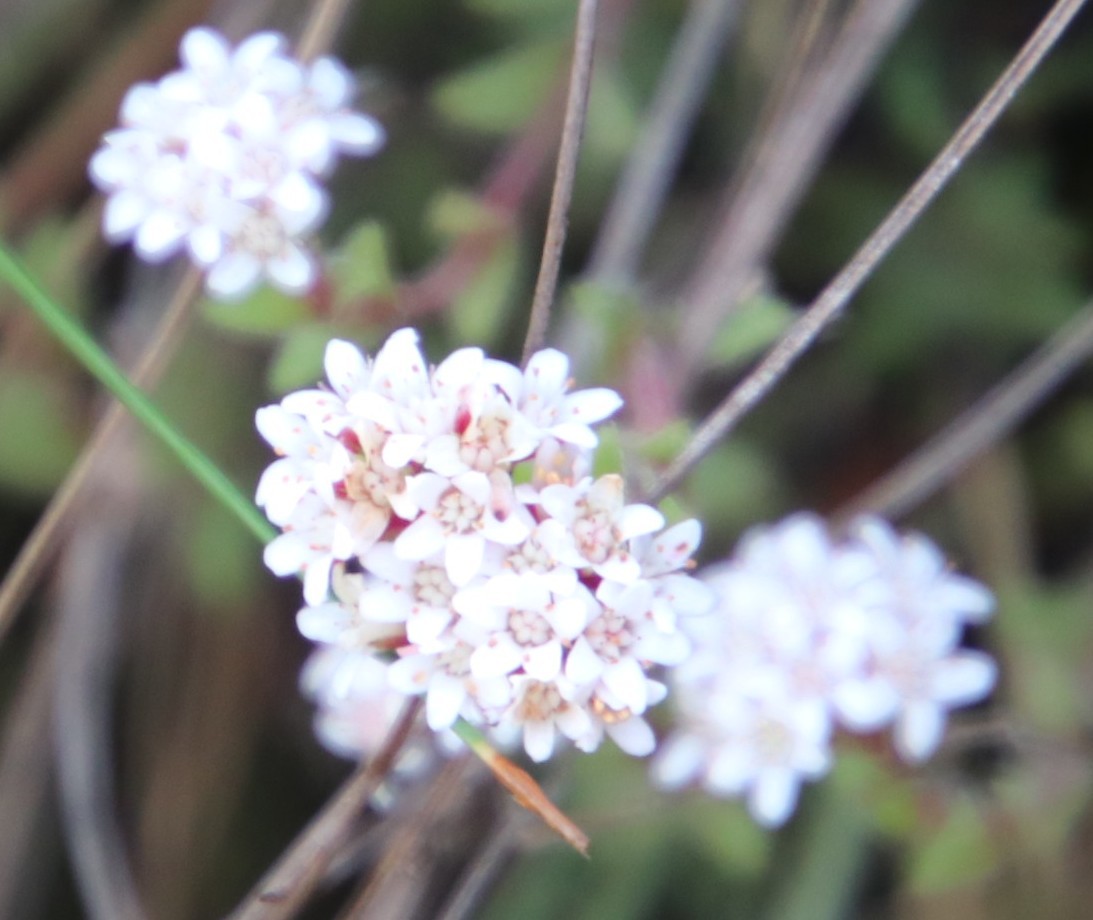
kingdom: Plantae
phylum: Tracheophyta
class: Magnoliopsida
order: Saxifragales
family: Crassulaceae
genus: Crassula
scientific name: Crassula setulosa
